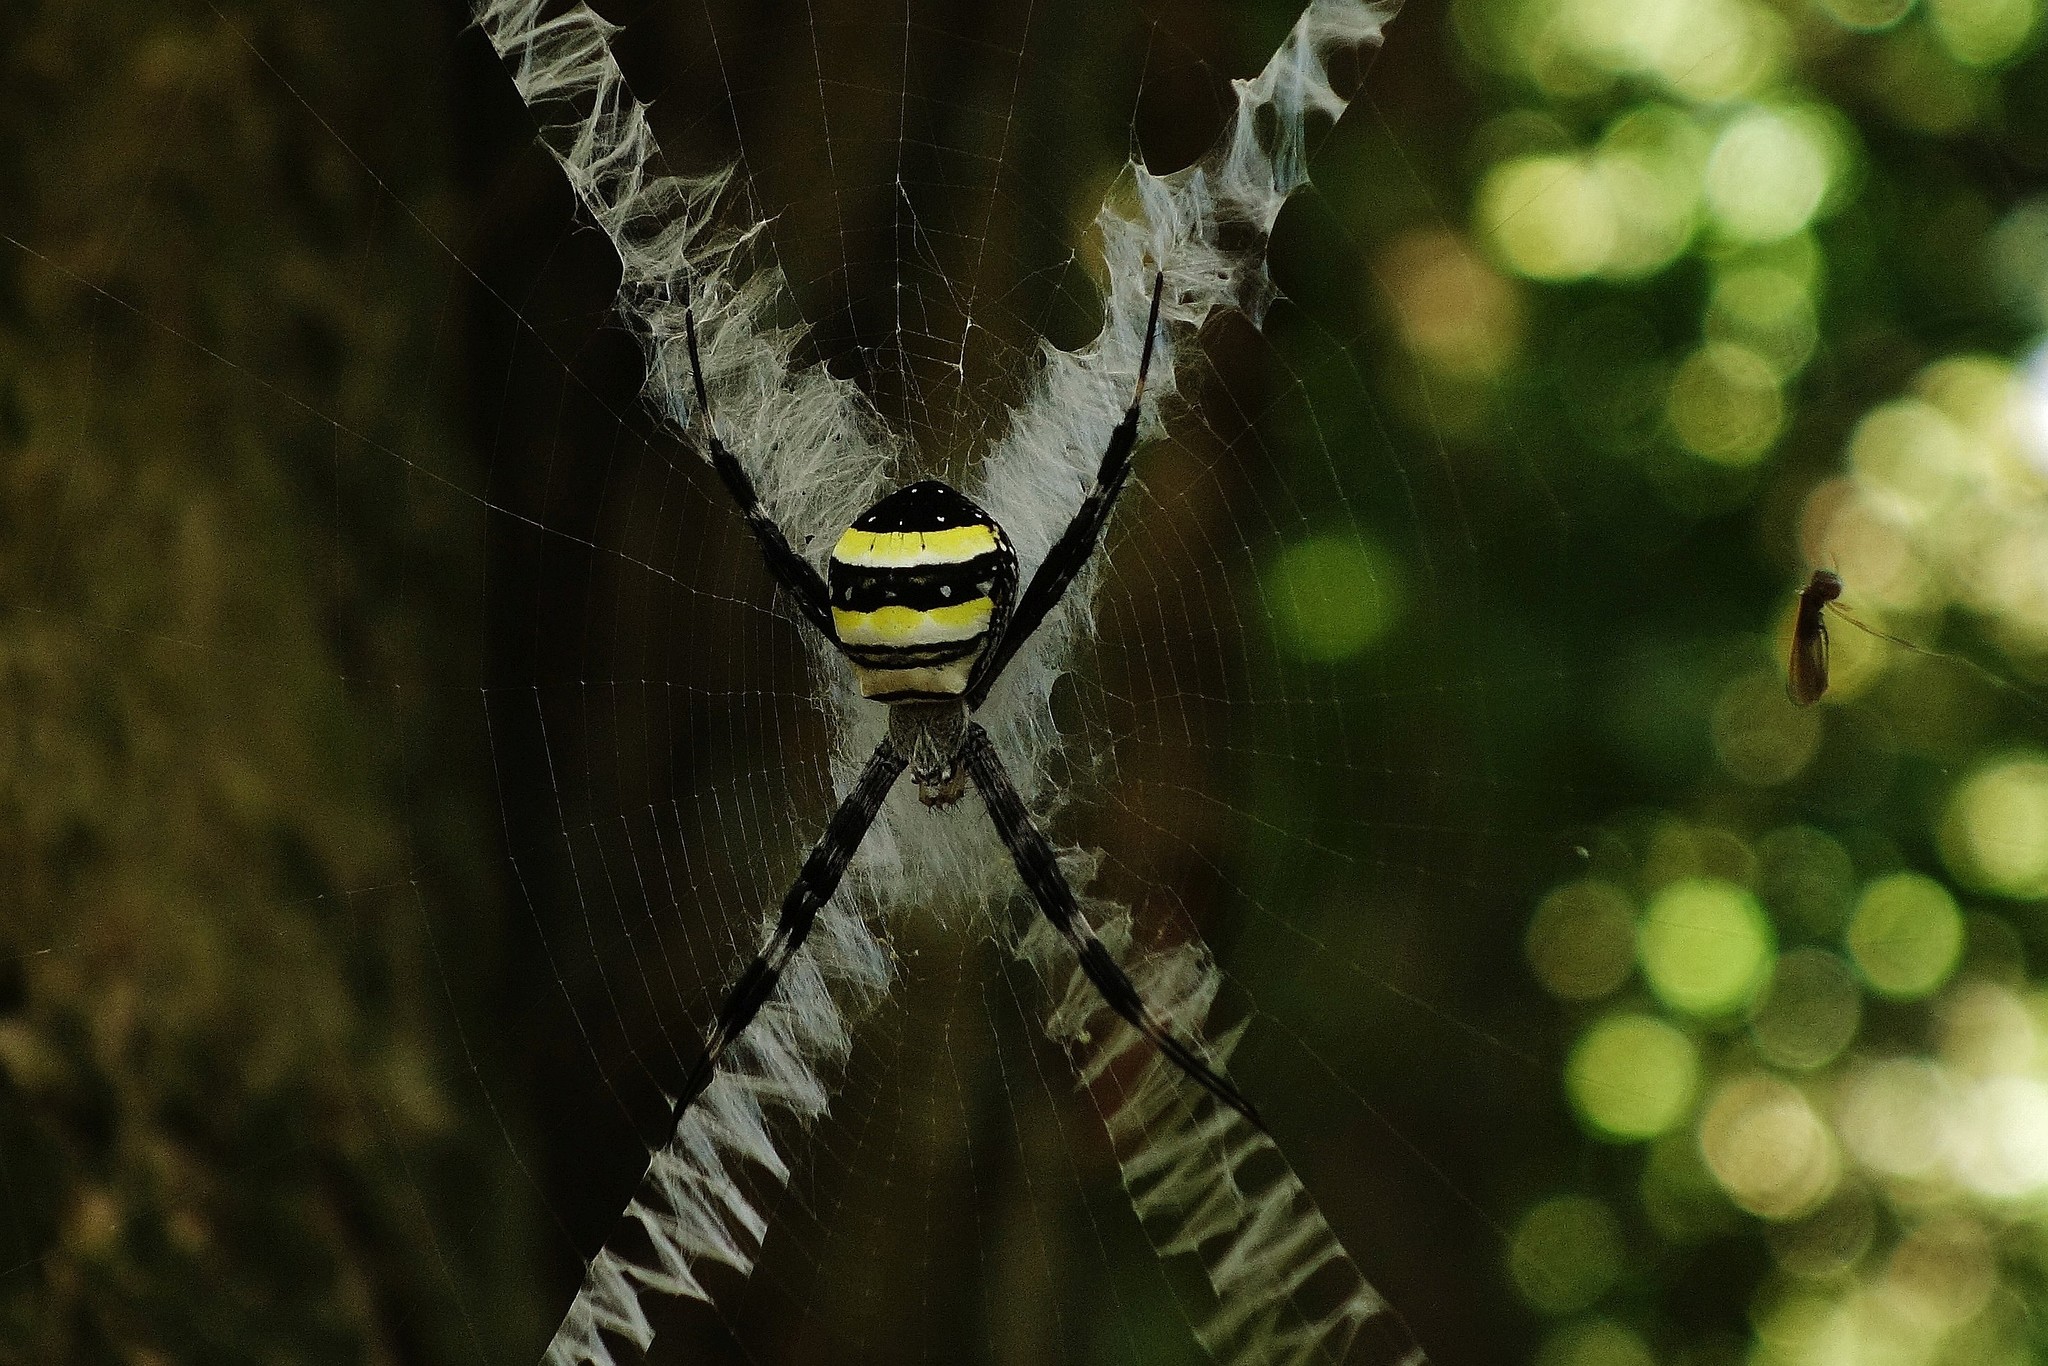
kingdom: Animalia
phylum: Arthropoda
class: Arachnida
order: Araneae
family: Araneidae
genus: Argiope
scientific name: Argiope caledonia
